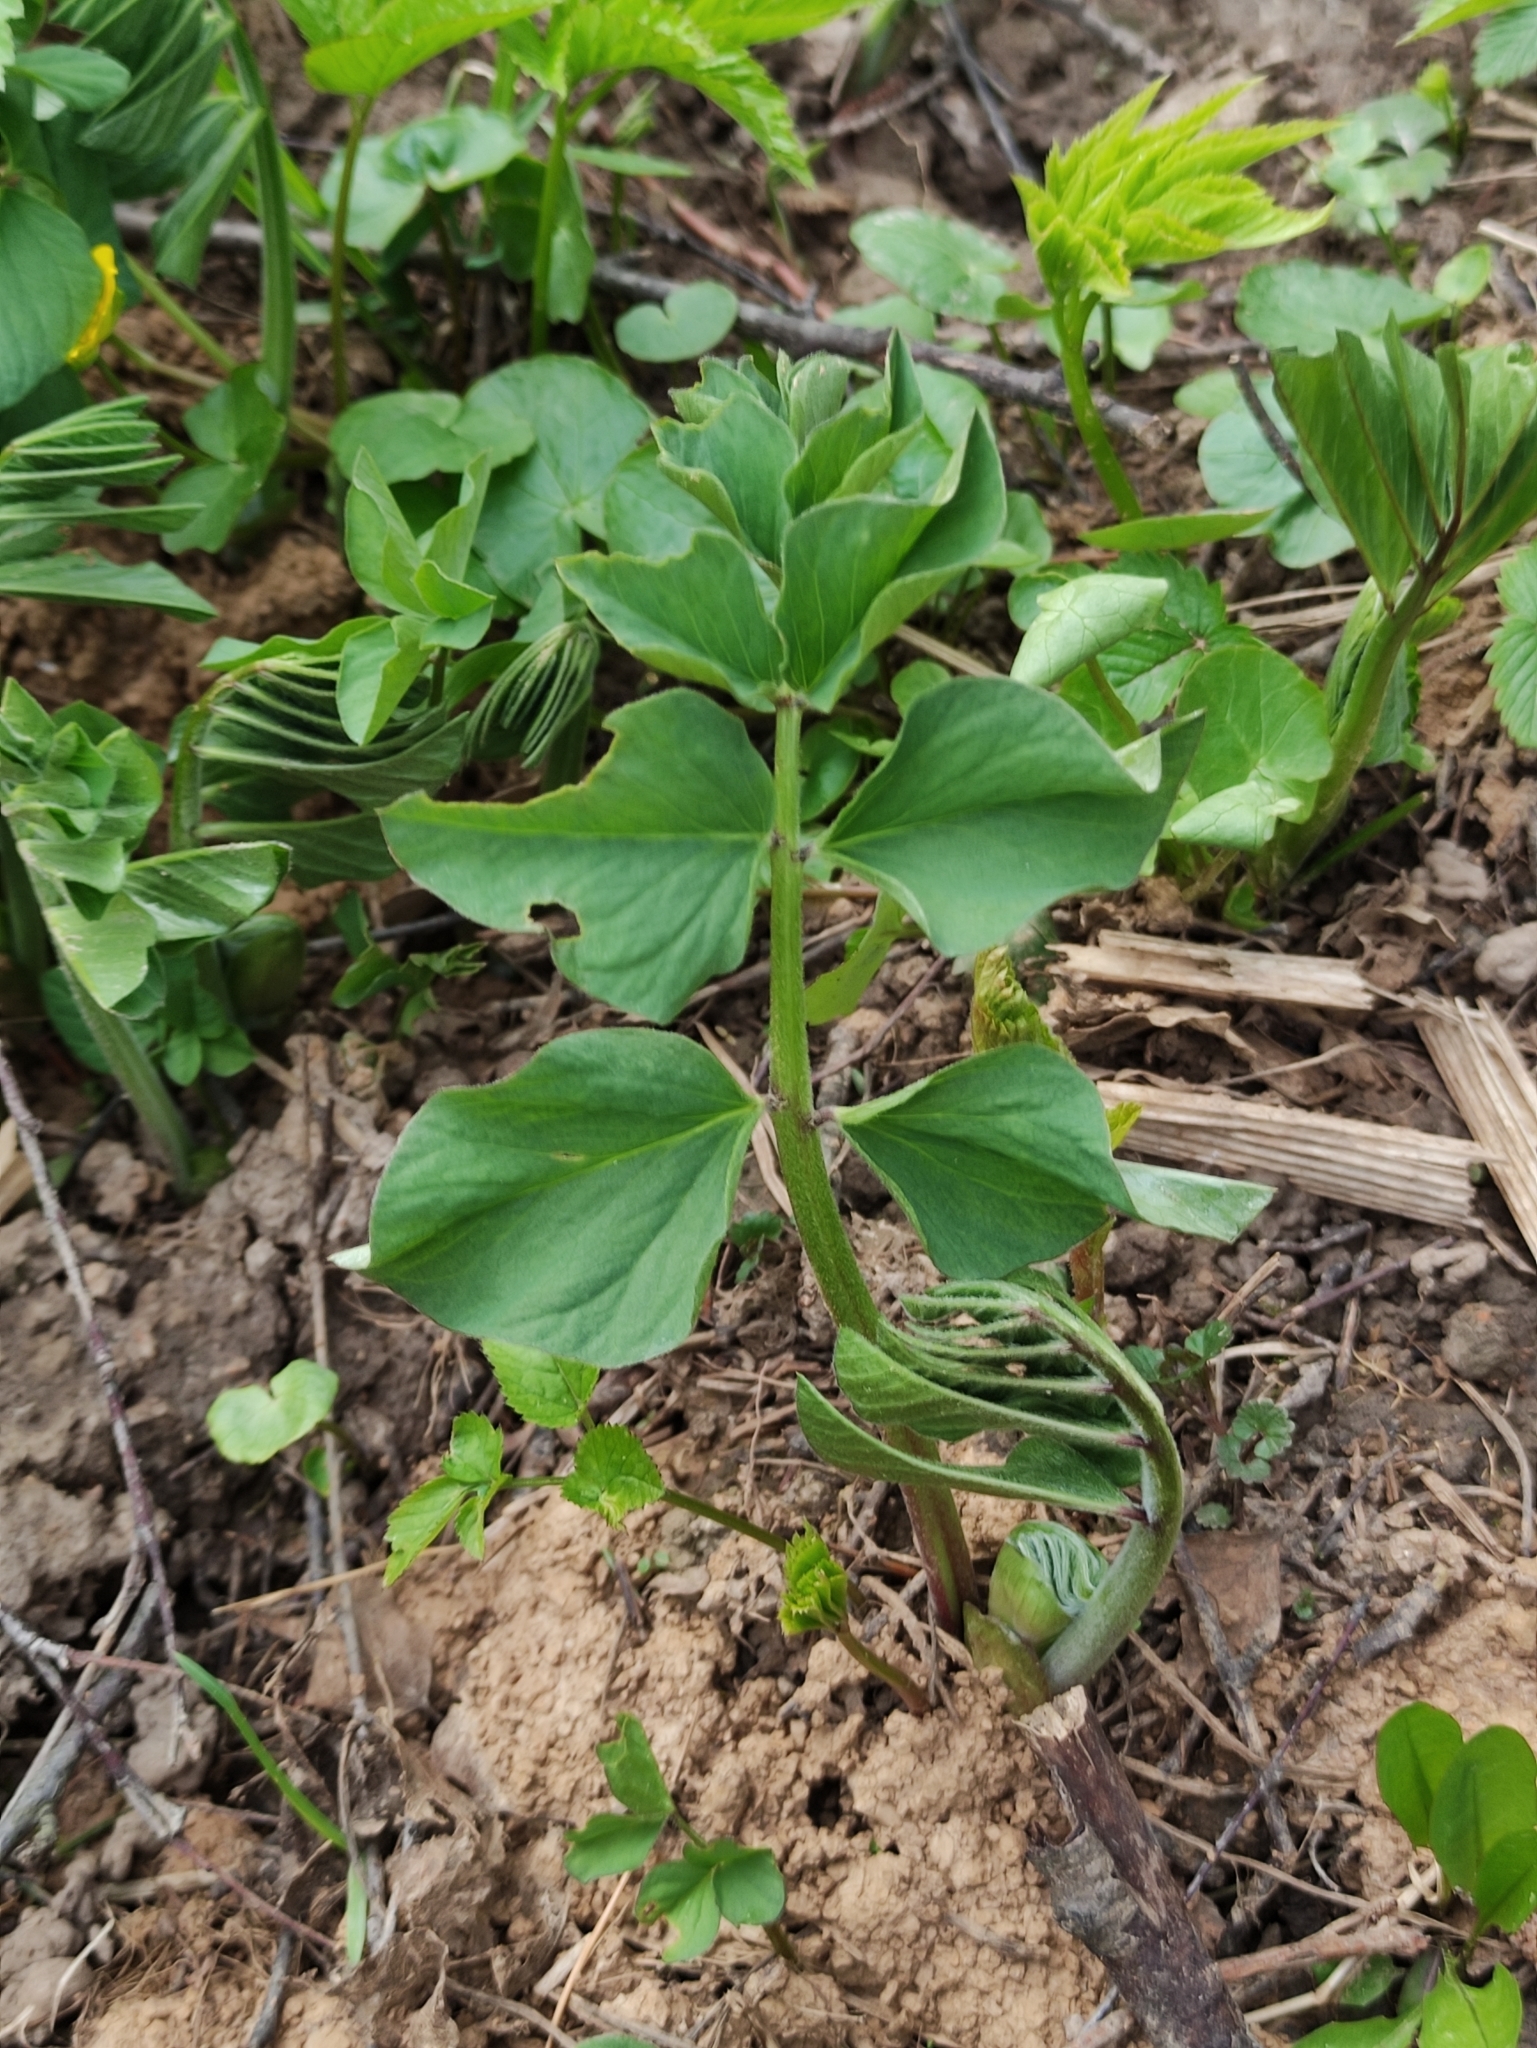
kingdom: Plantae
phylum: Tracheophyta
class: Magnoliopsida
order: Fabales
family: Fabaceae
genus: Galega
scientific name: Galega orientalis
